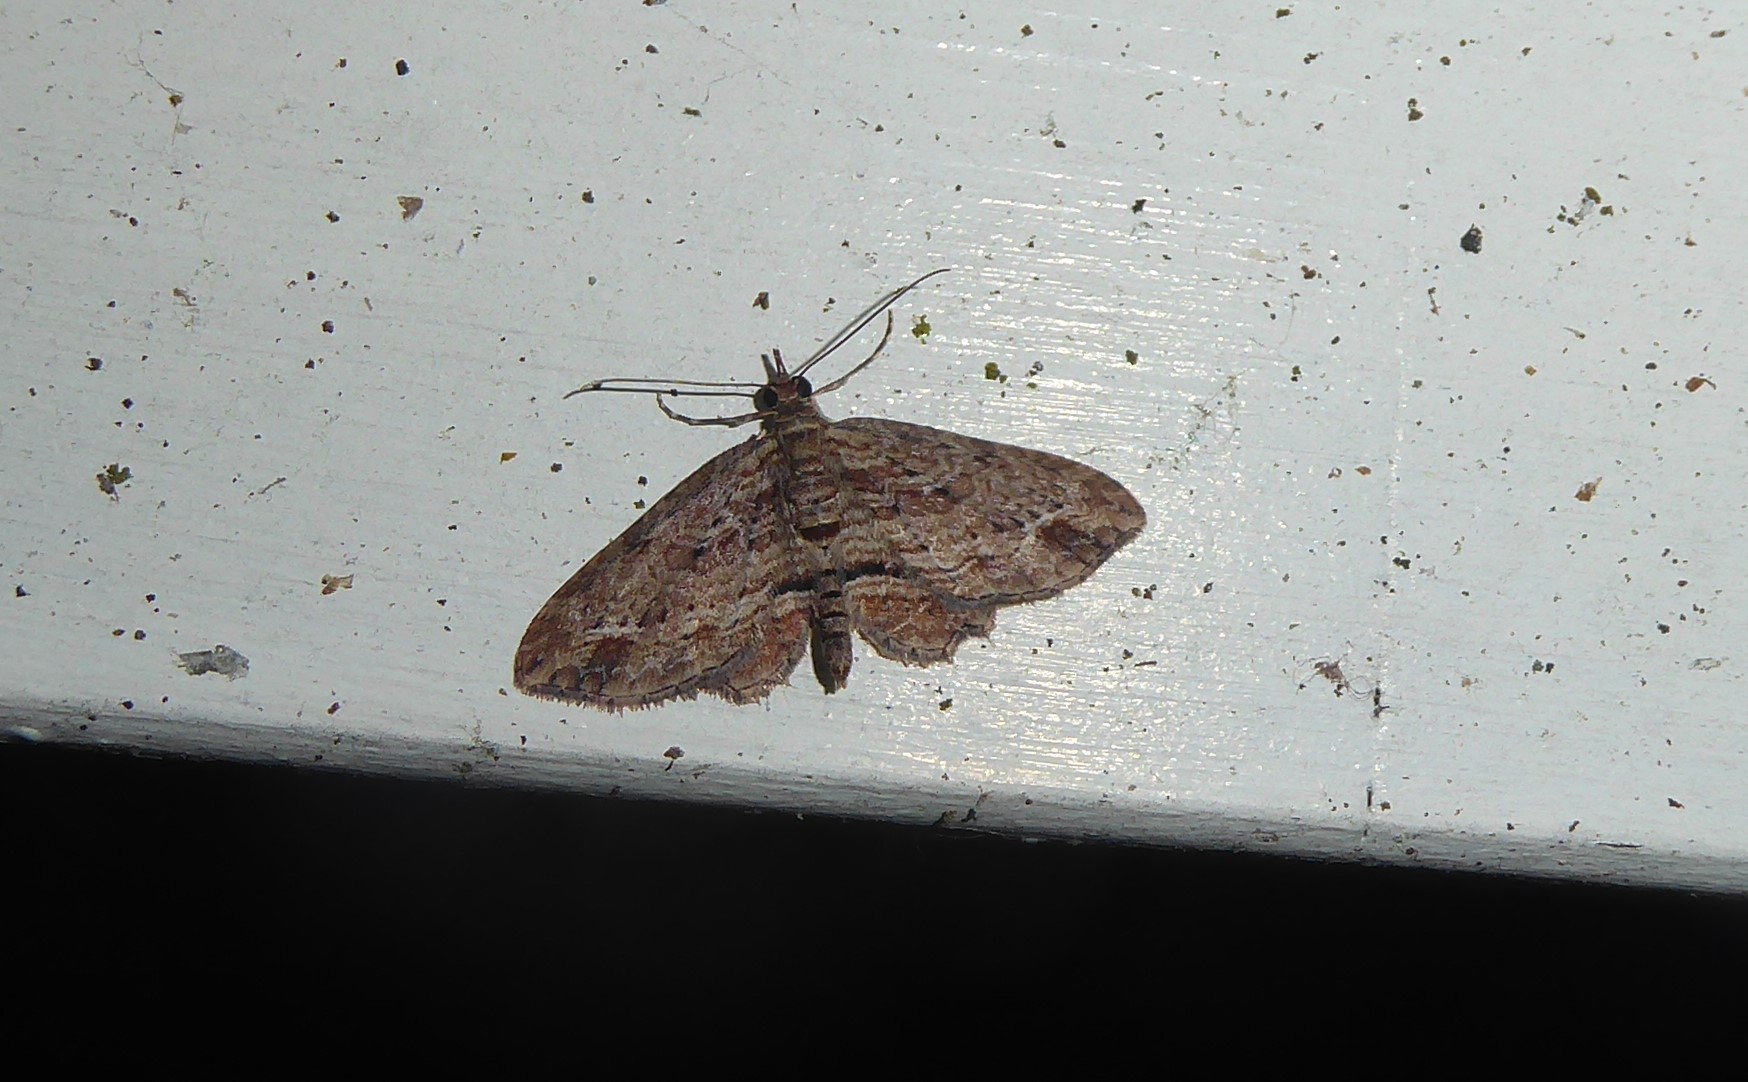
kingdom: Animalia
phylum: Arthropoda
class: Insecta
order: Lepidoptera
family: Geometridae
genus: Chloroclystis
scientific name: Chloroclystis filata
